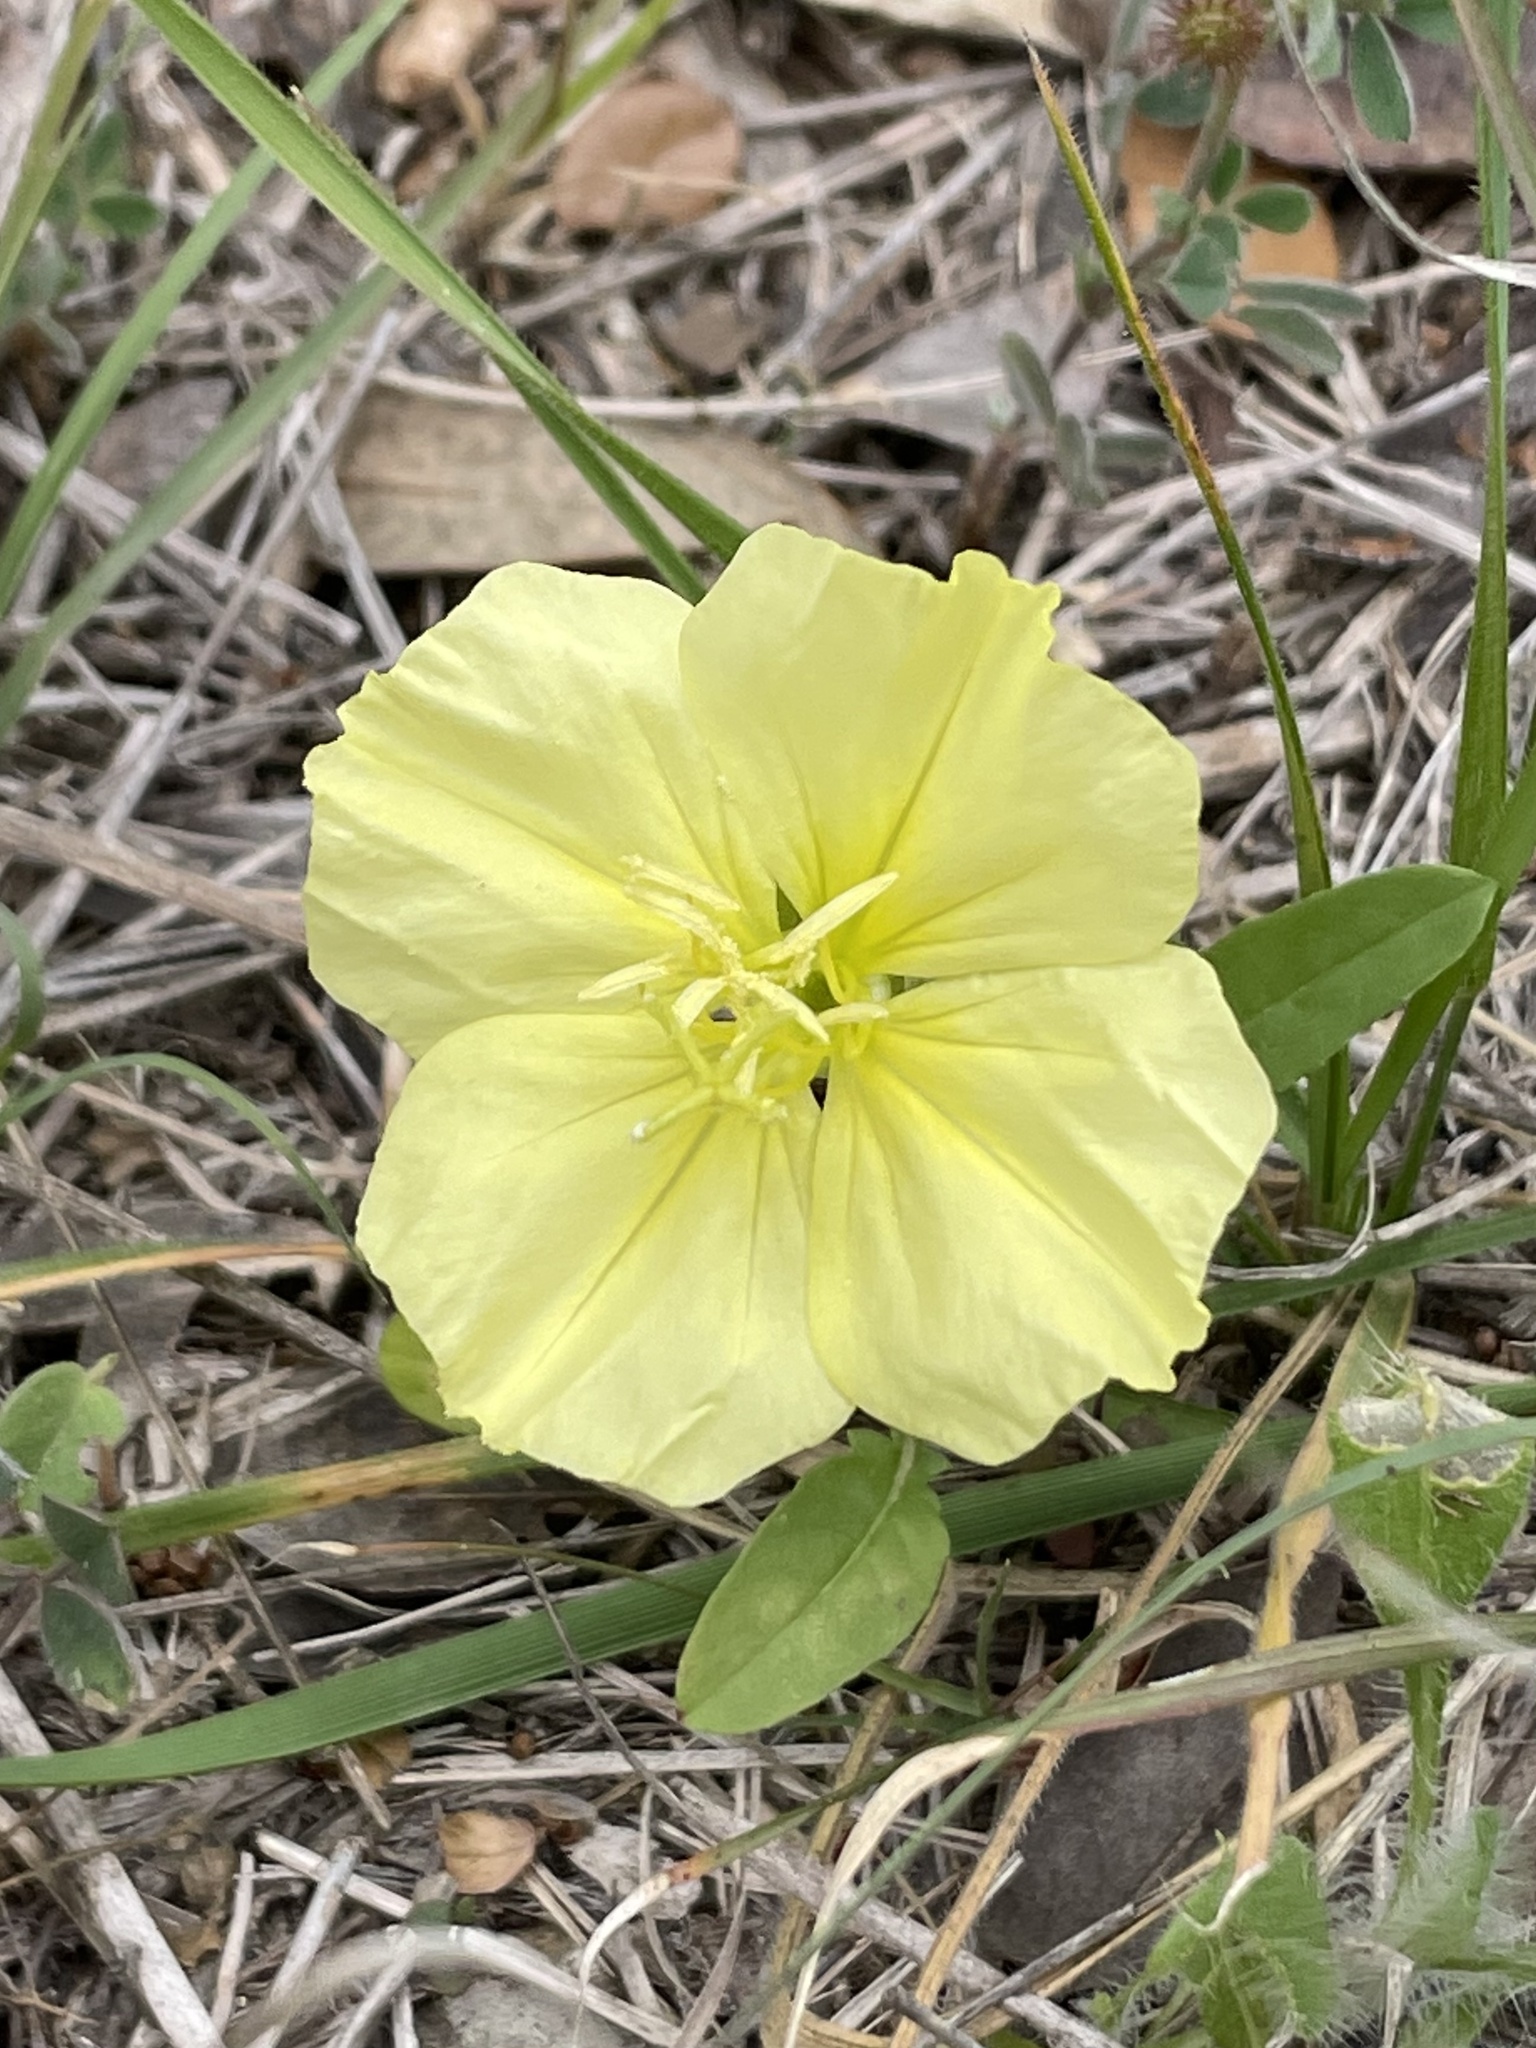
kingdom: Plantae
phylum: Tracheophyta
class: Magnoliopsida
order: Myrtales
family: Onagraceae
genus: Oenothera
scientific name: Oenothera triloba
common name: Sessile evening-primrose
